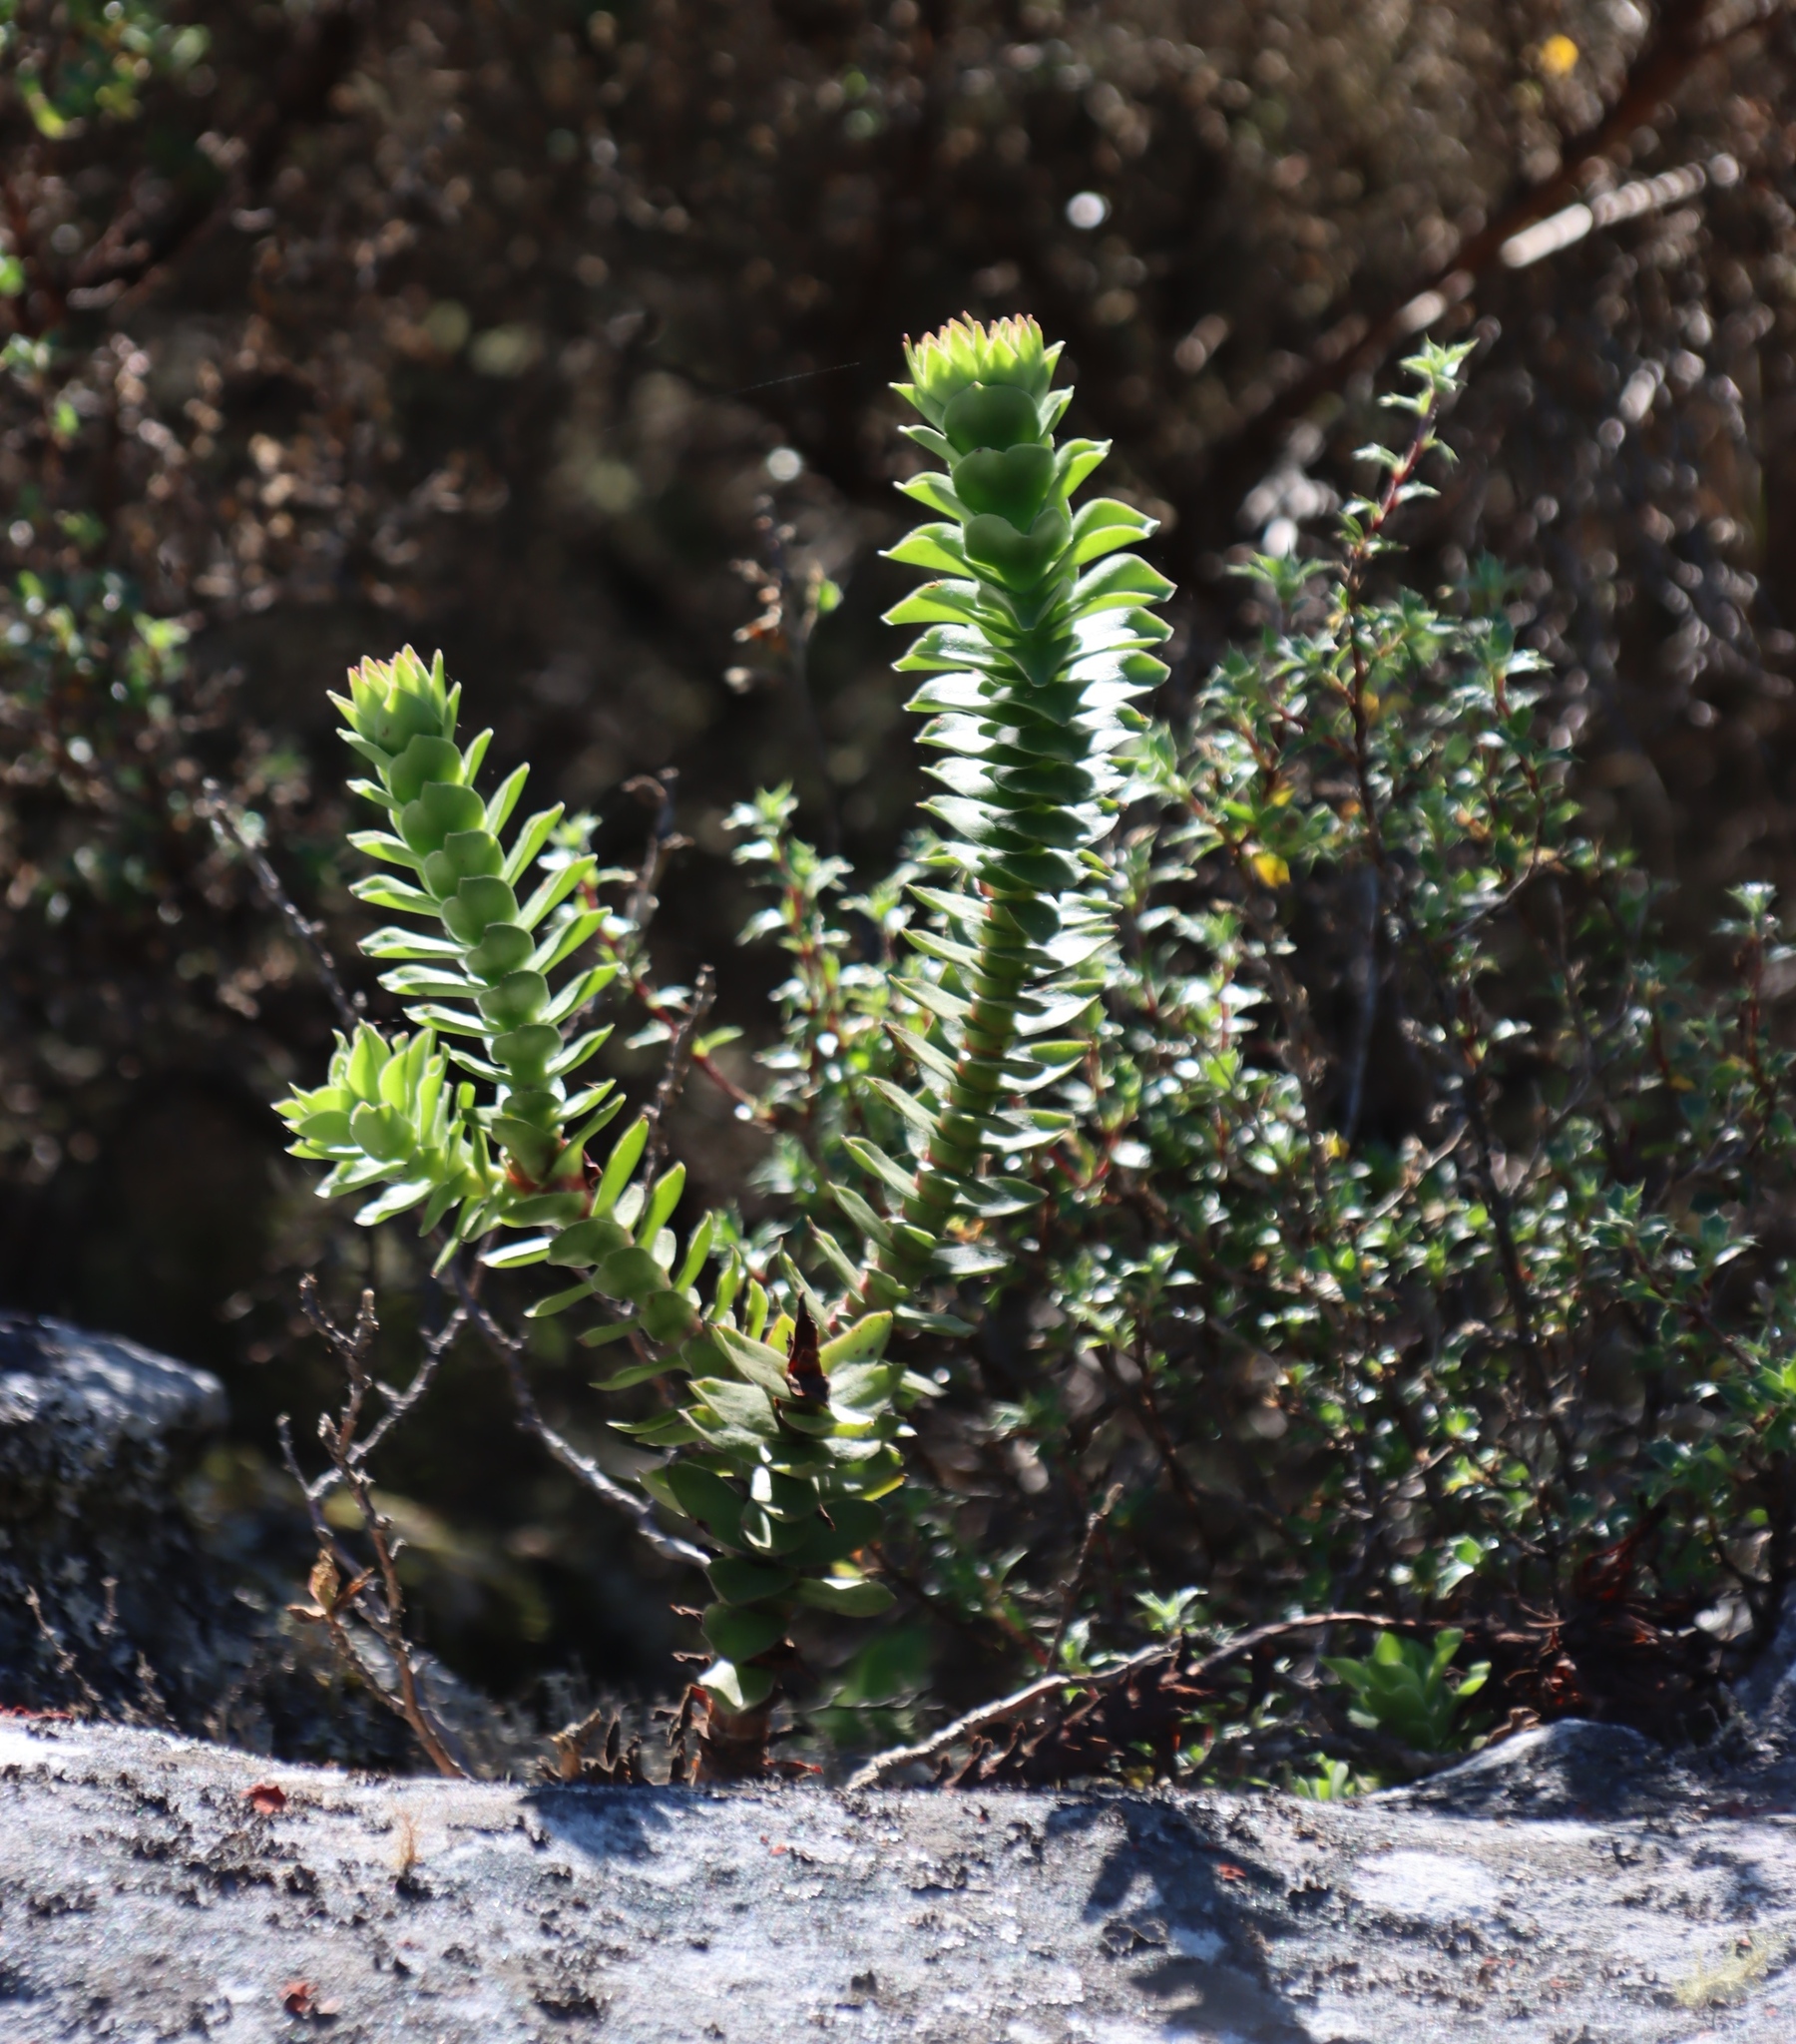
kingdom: Plantae
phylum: Tracheophyta
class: Magnoliopsida
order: Saxifragales
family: Crassulaceae
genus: Crassula
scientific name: Crassula coccinea
